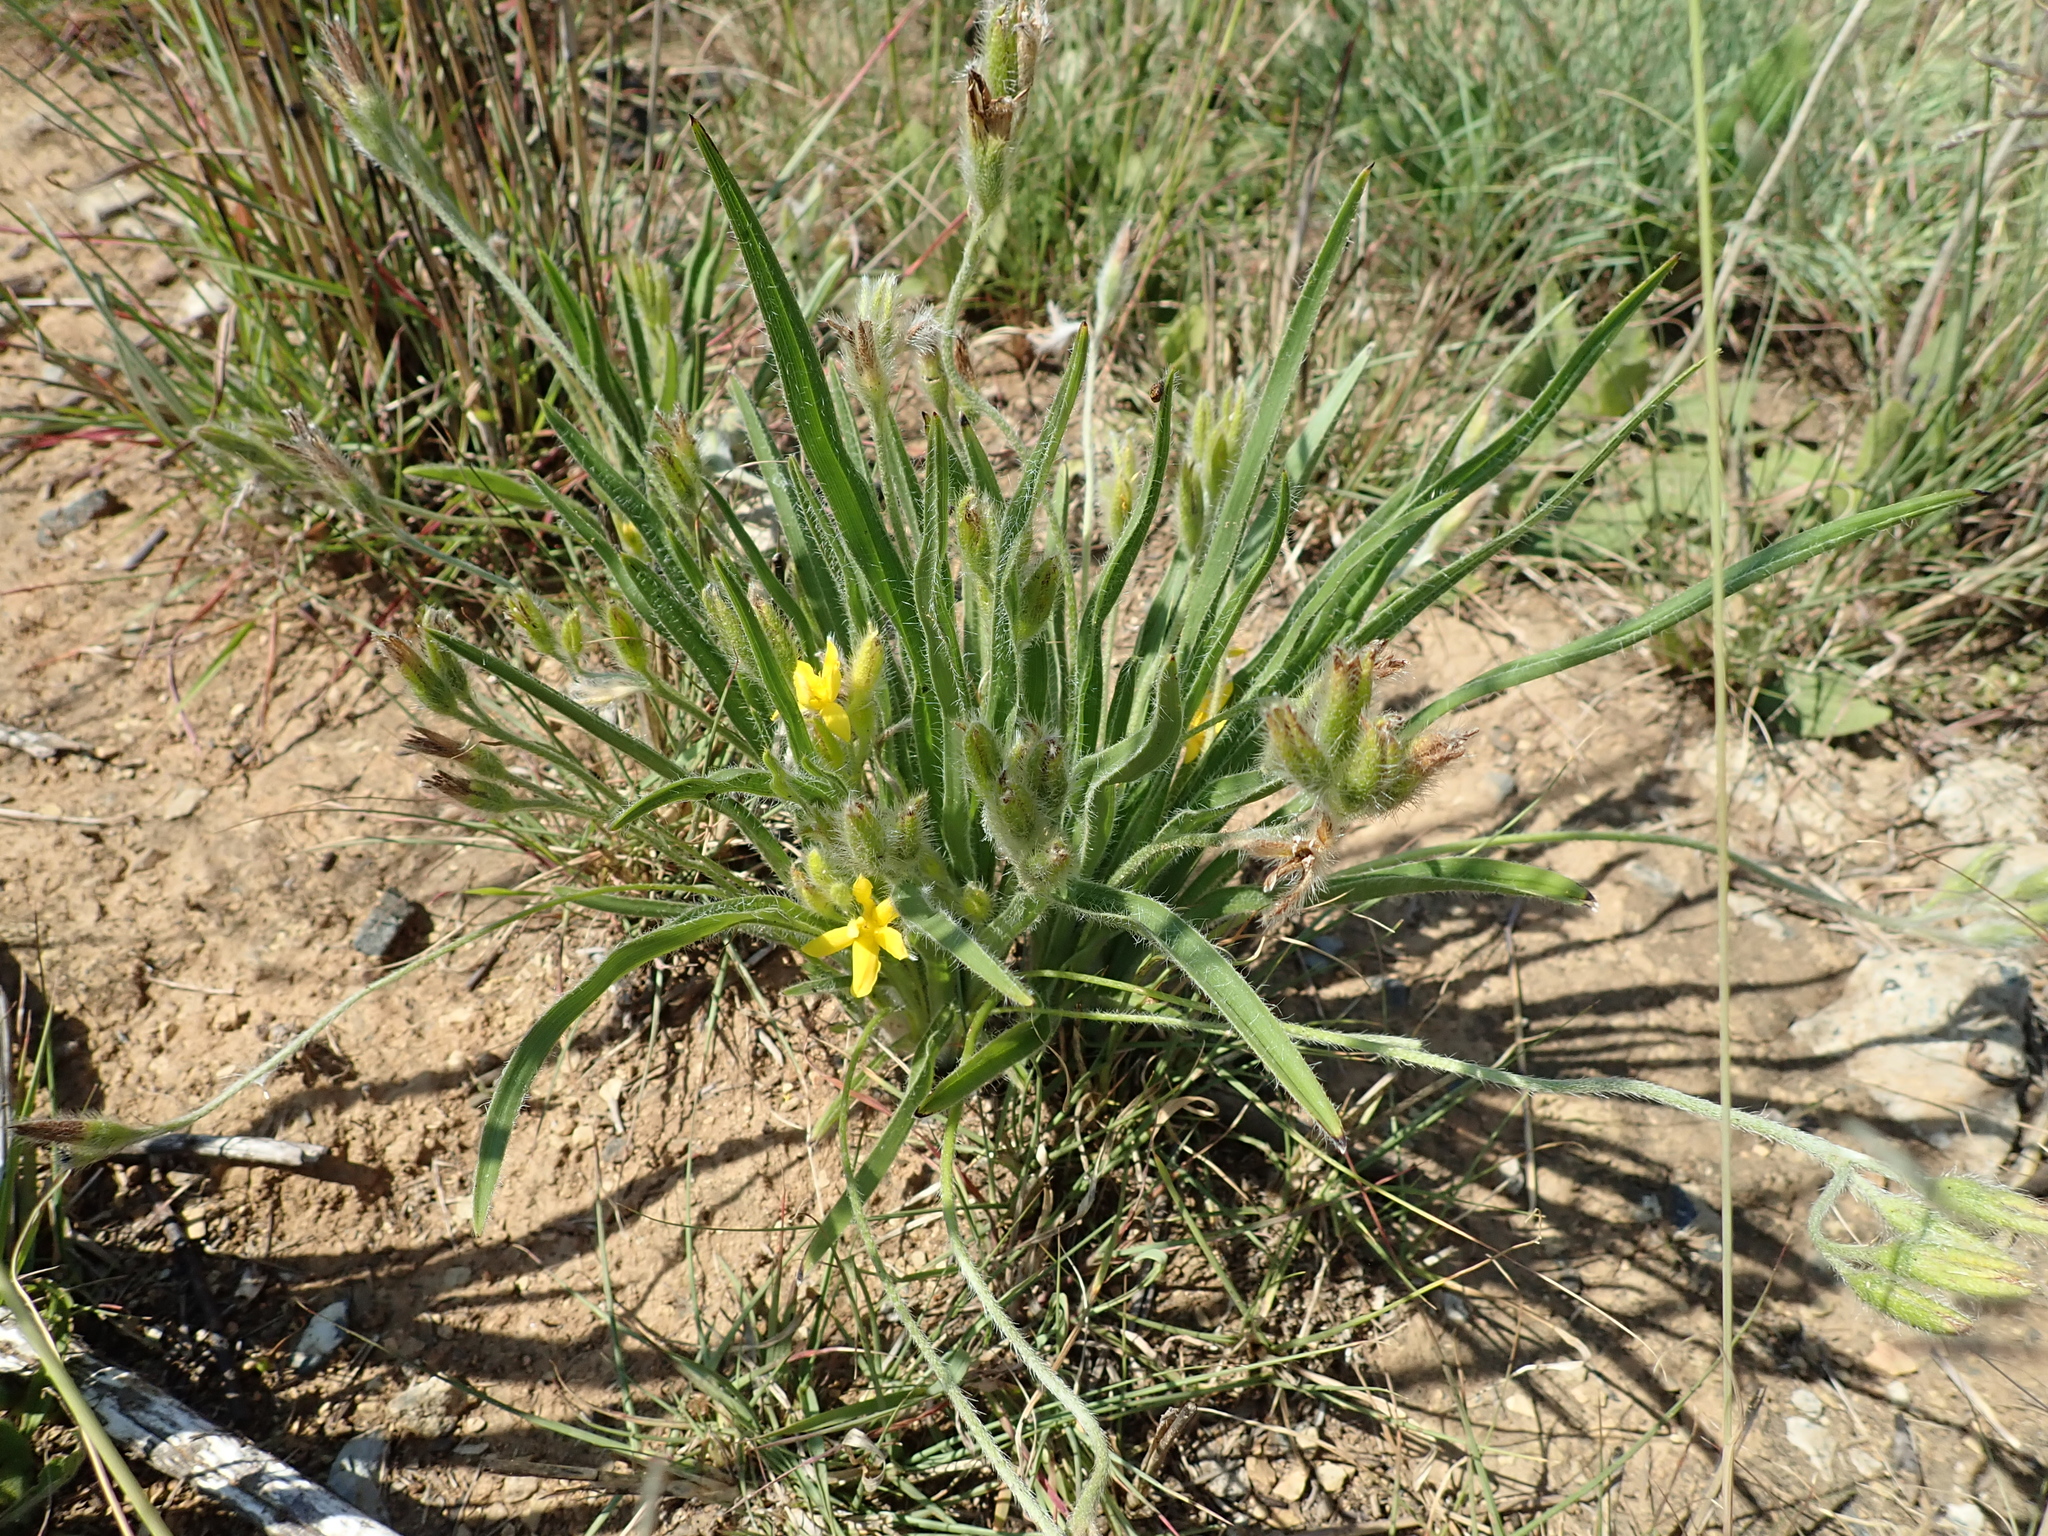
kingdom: Plantae
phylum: Tracheophyta
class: Liliopsida
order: Asparagales
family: Hypoxidaceae
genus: Hypoxis
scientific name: Hypoxis ludwigii
